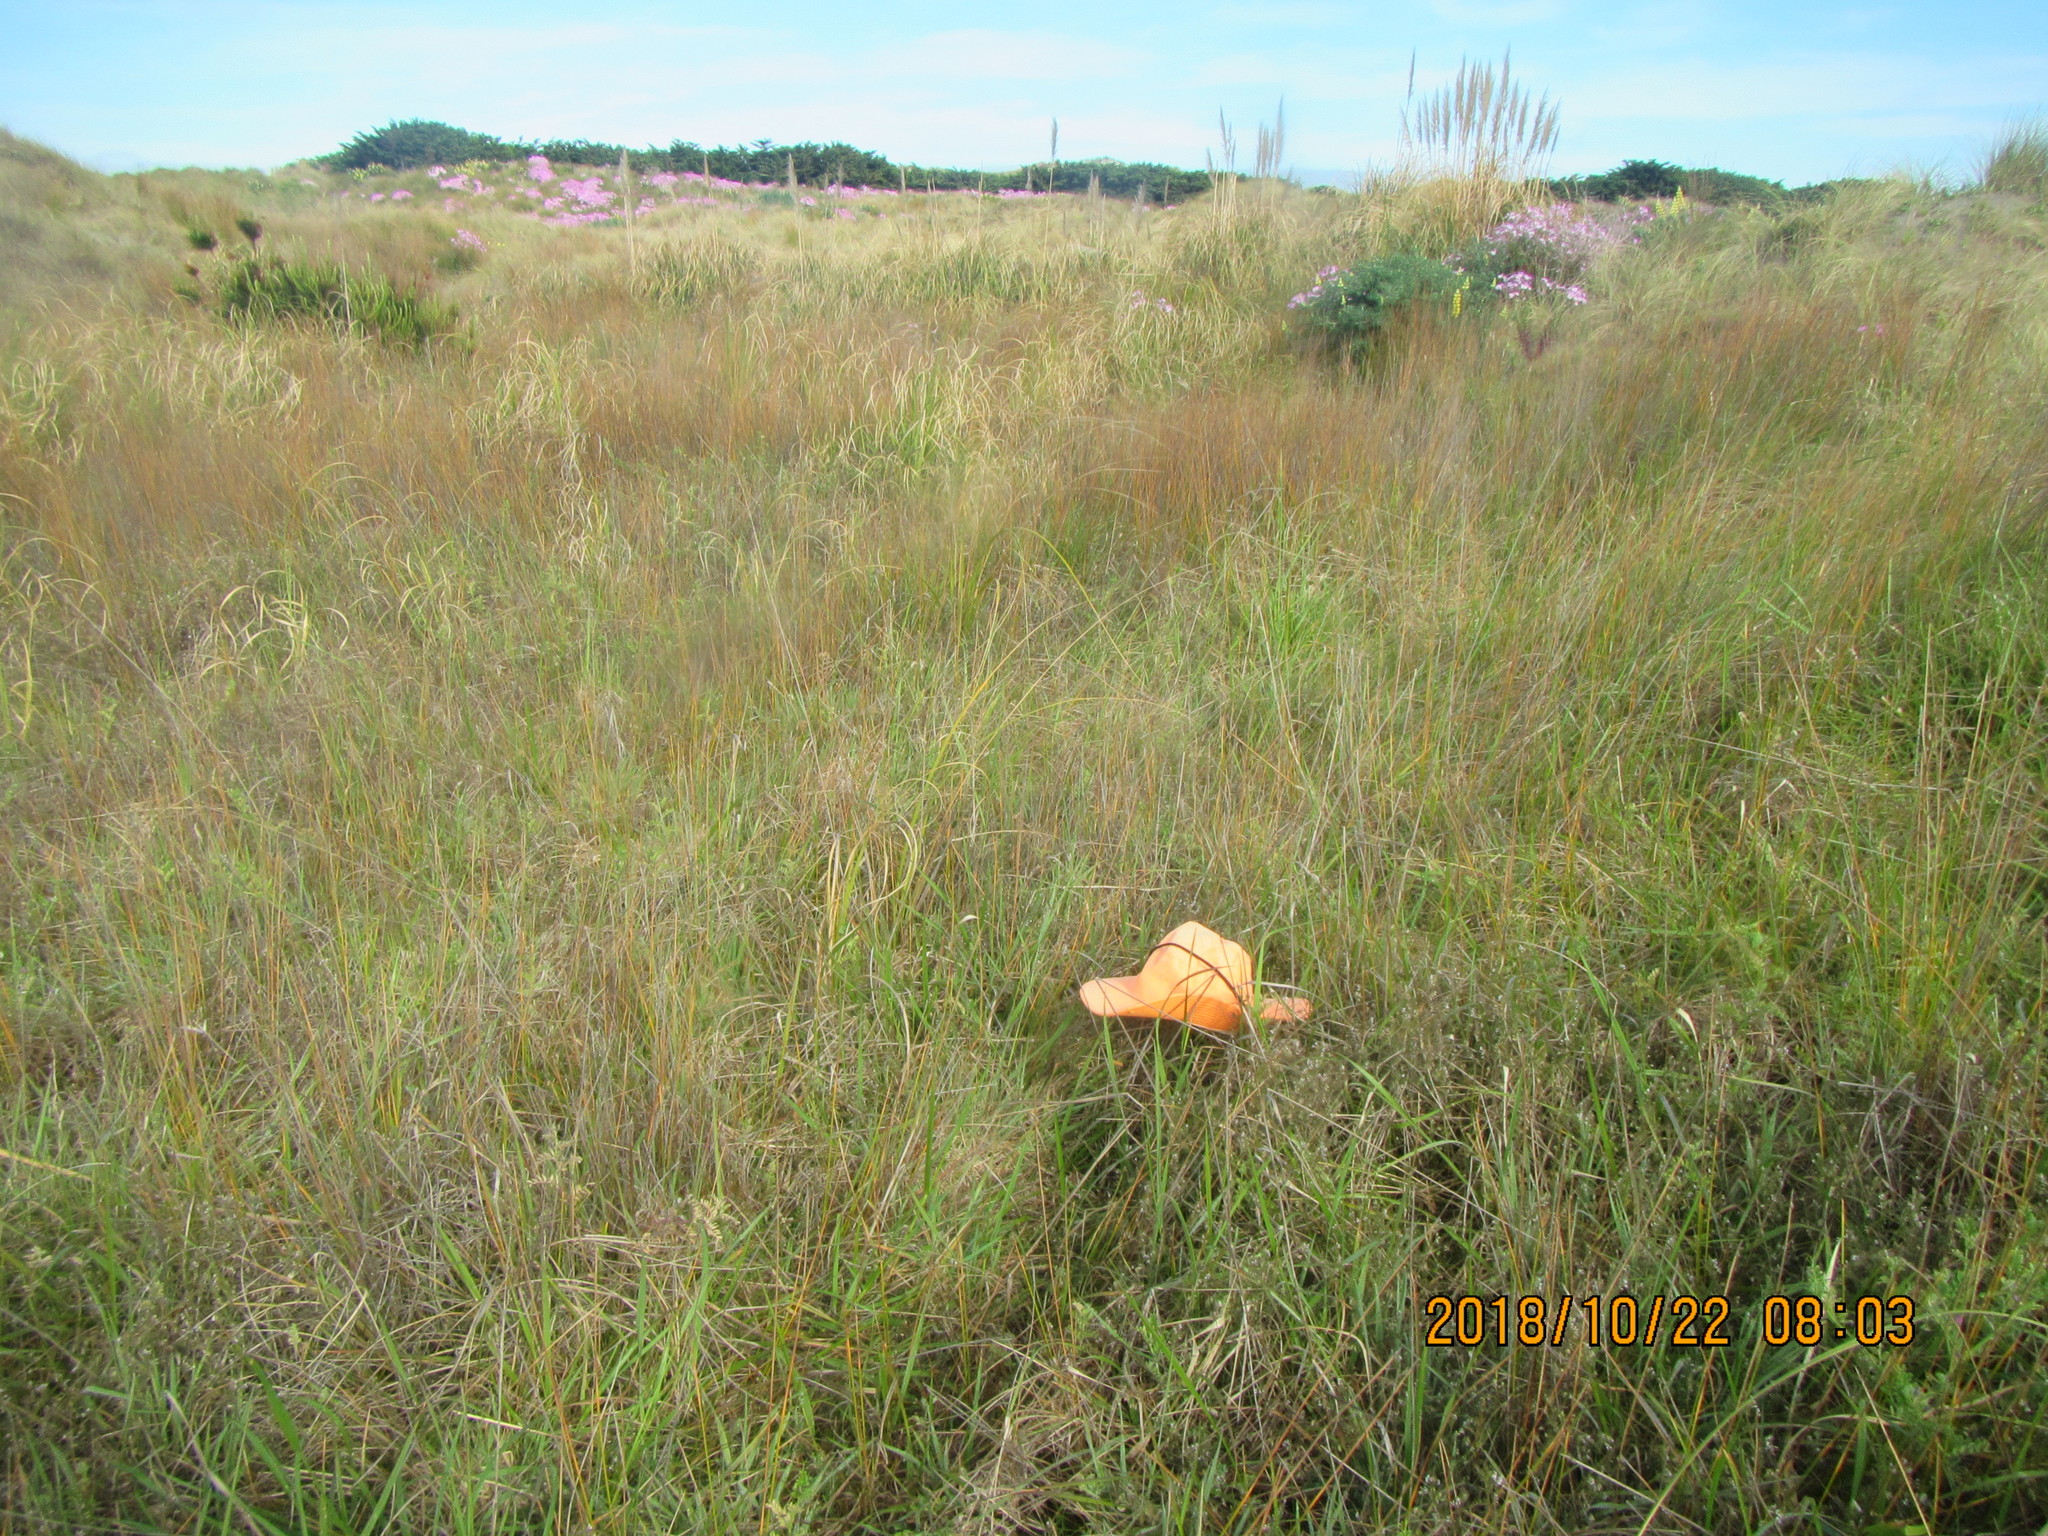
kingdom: Plantae
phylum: Tracheophyta
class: Magnoliopsida
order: Fabales
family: Fabaceae
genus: Vicia
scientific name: Vicia hirsuta
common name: Tiny vetch
